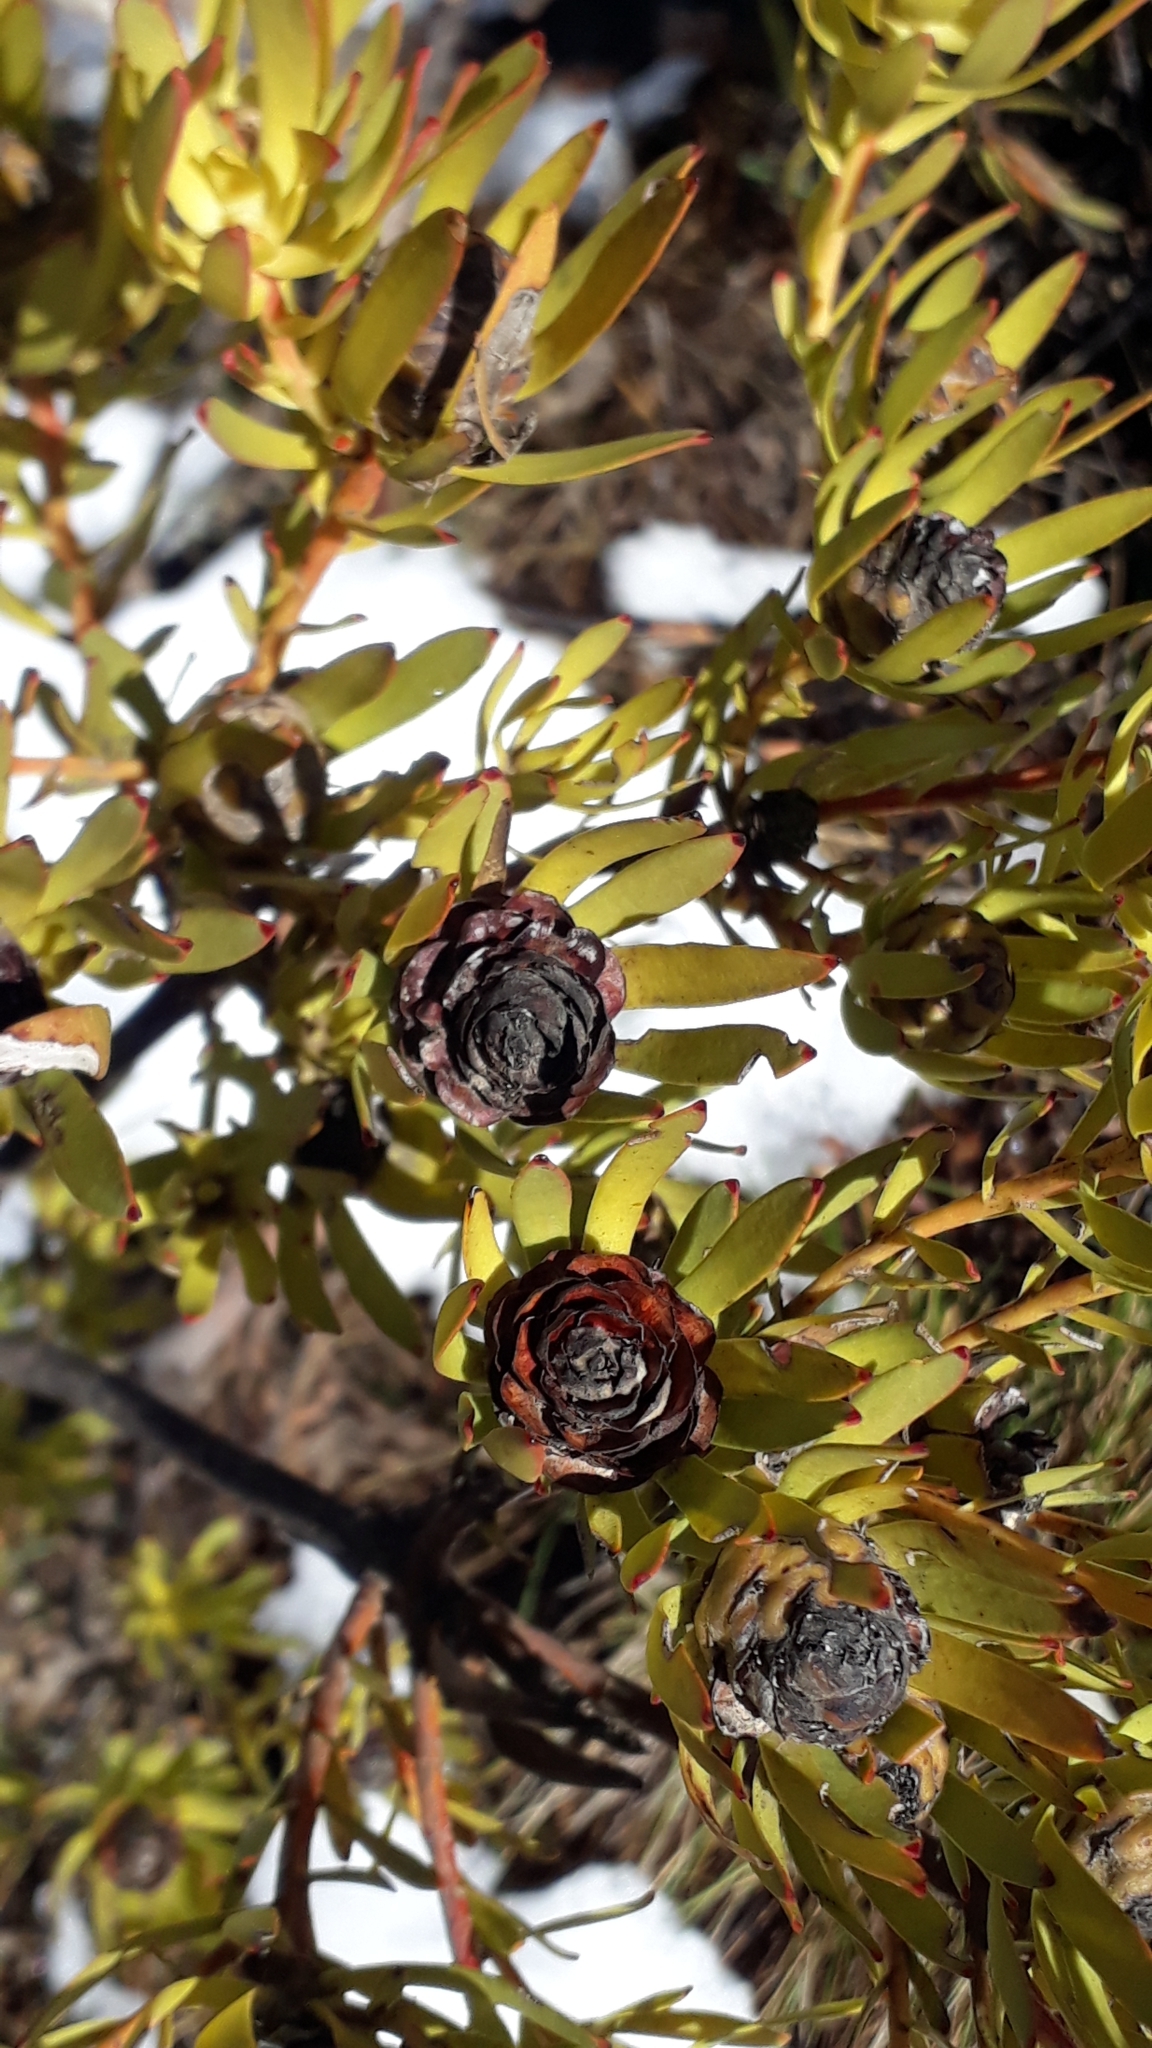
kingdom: Plantae
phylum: Tracheophyta
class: Magnoliopsida
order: Proteales
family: Proteaceae
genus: Leucadendron
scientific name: Leucadendron salignum
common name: Common sunshine conebush
